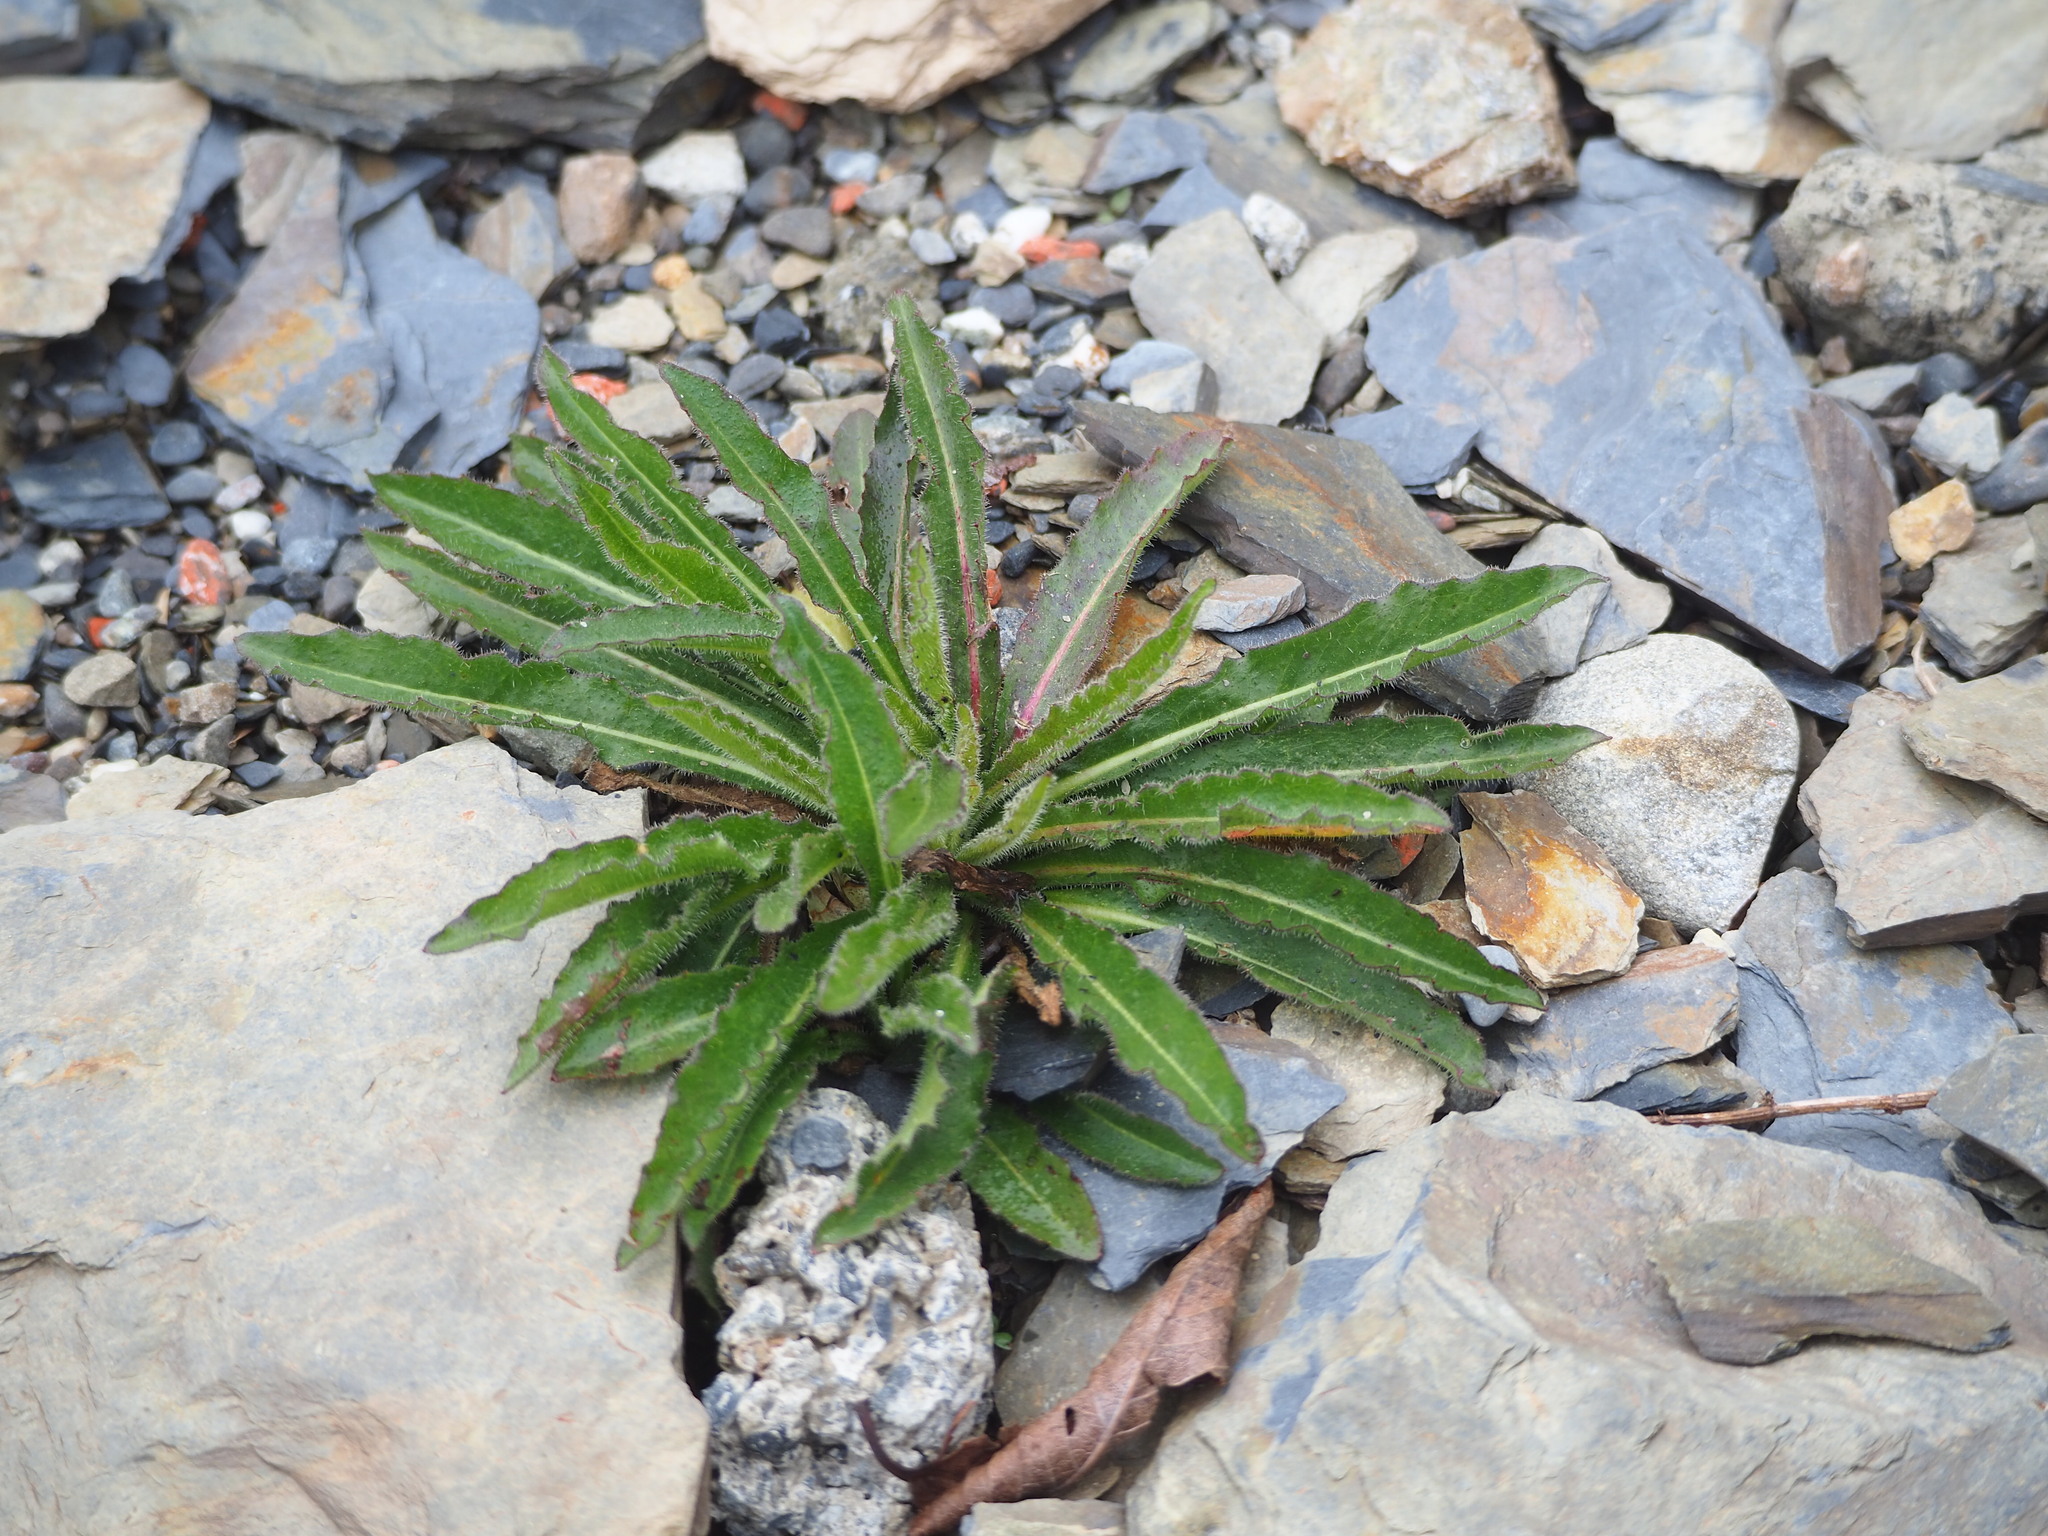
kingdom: Plantae
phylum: Tracheophyta
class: Magnoliopsida
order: Asterales
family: Asteraceae
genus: Picris
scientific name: Picris hieracioides
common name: Hawkweed oxtongue
